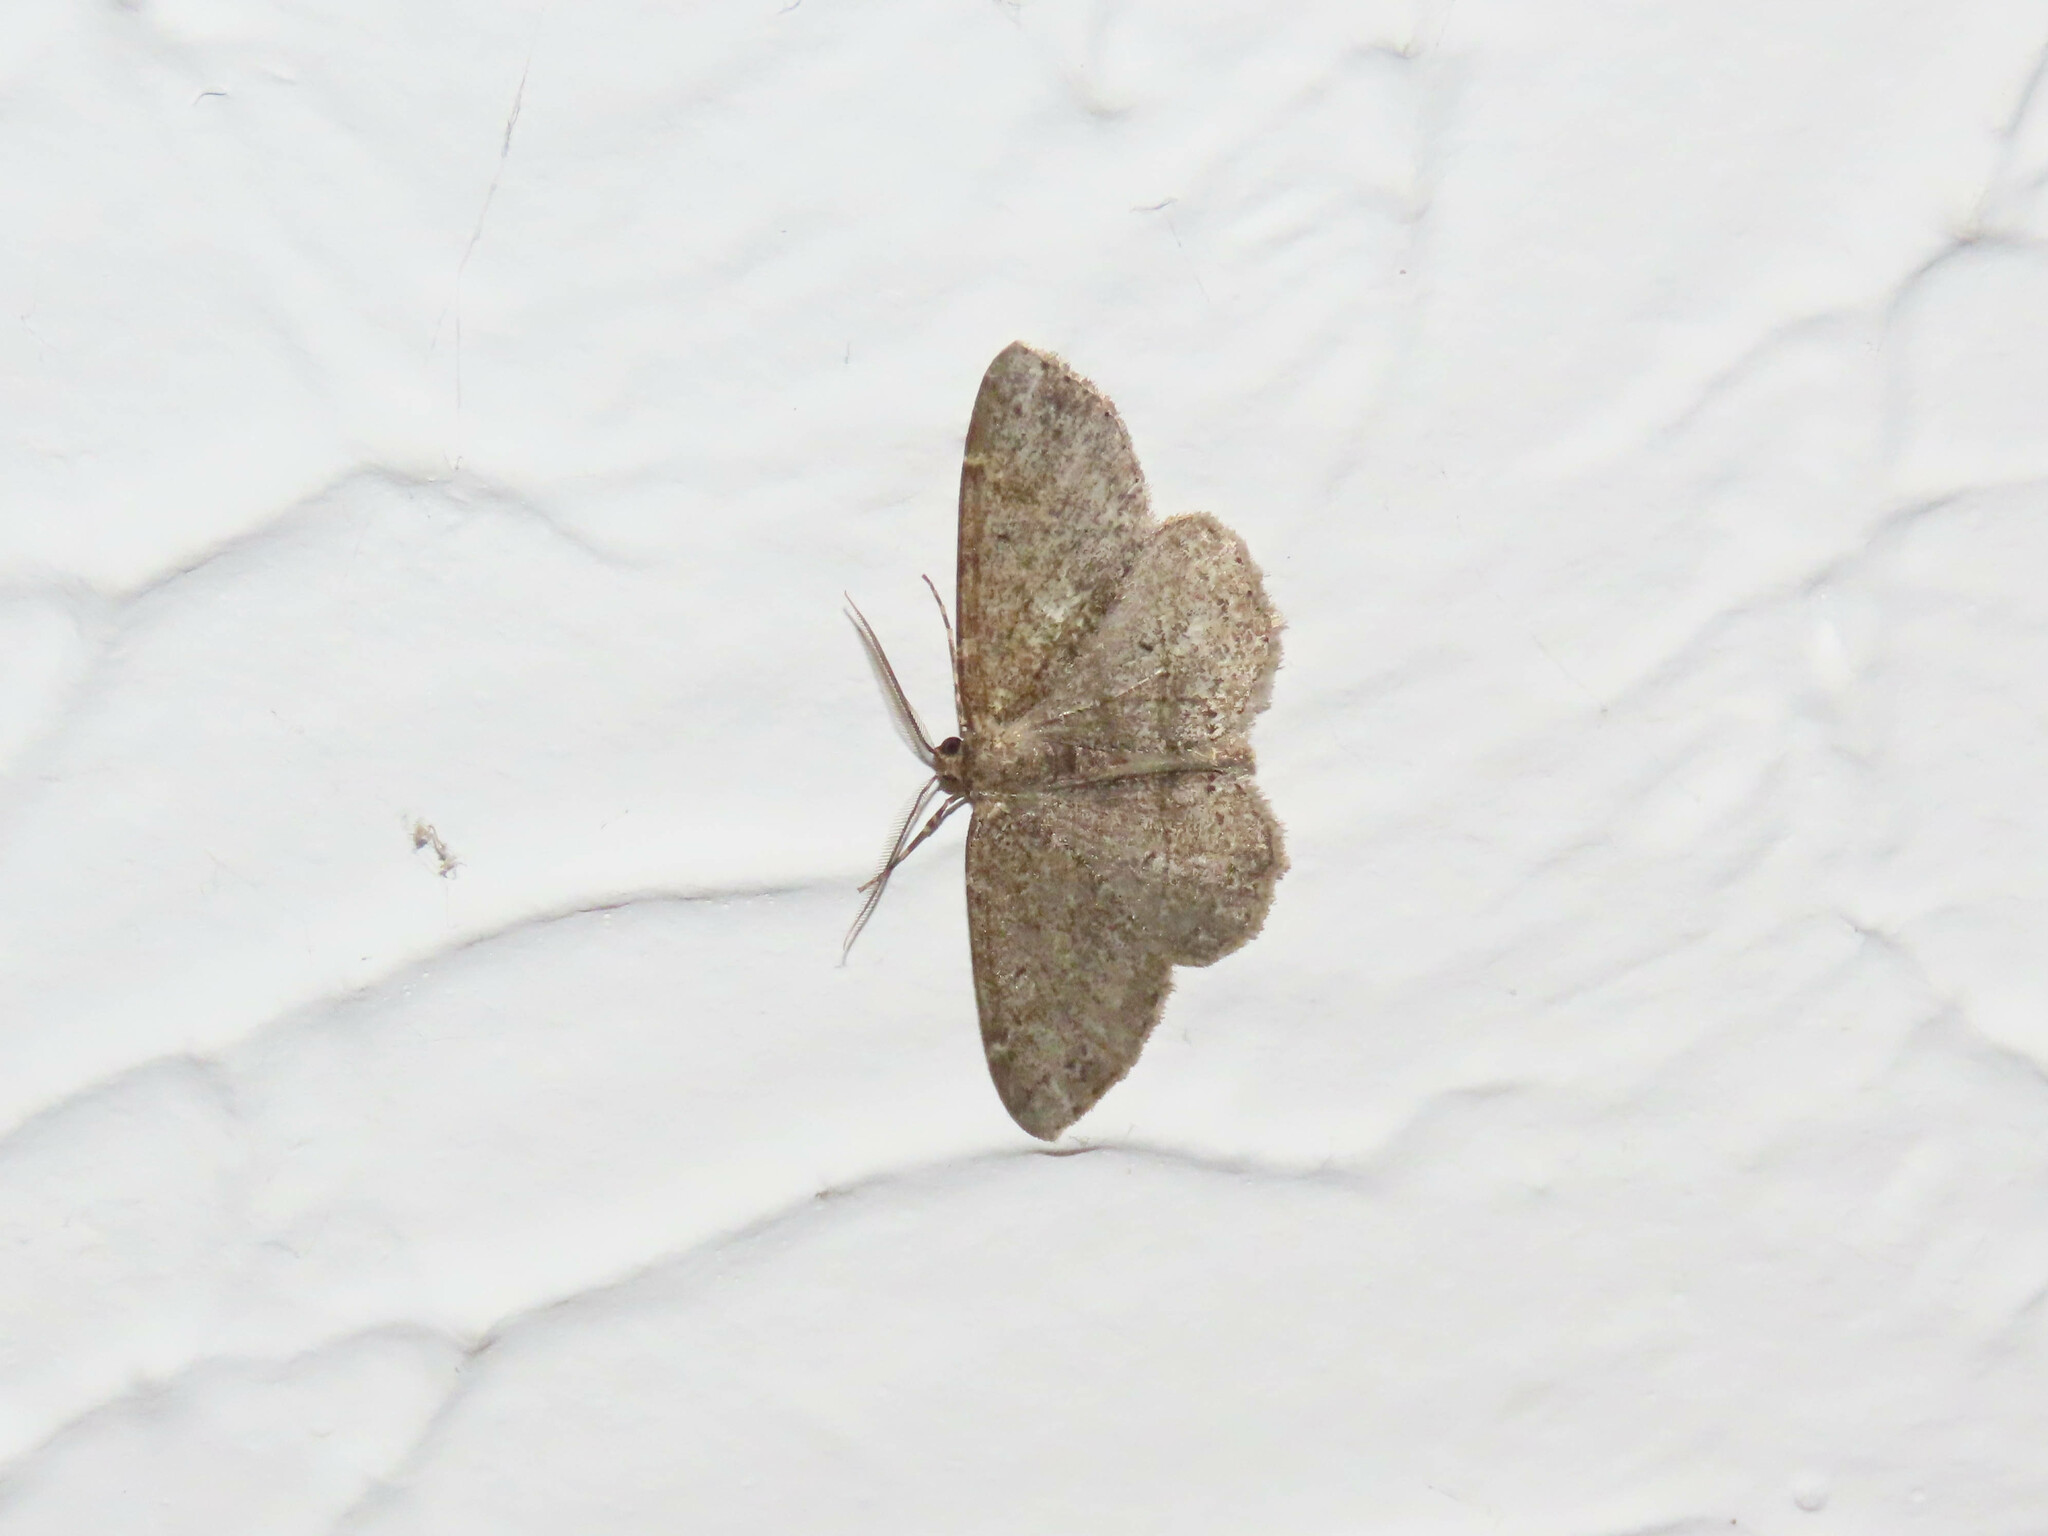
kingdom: Animalia
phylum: Arthropoda
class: Insecta
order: Lepidoptera
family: Geometridae
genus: Melanolophia
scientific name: Melanolophia canadaria
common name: Canadian melanolophia
